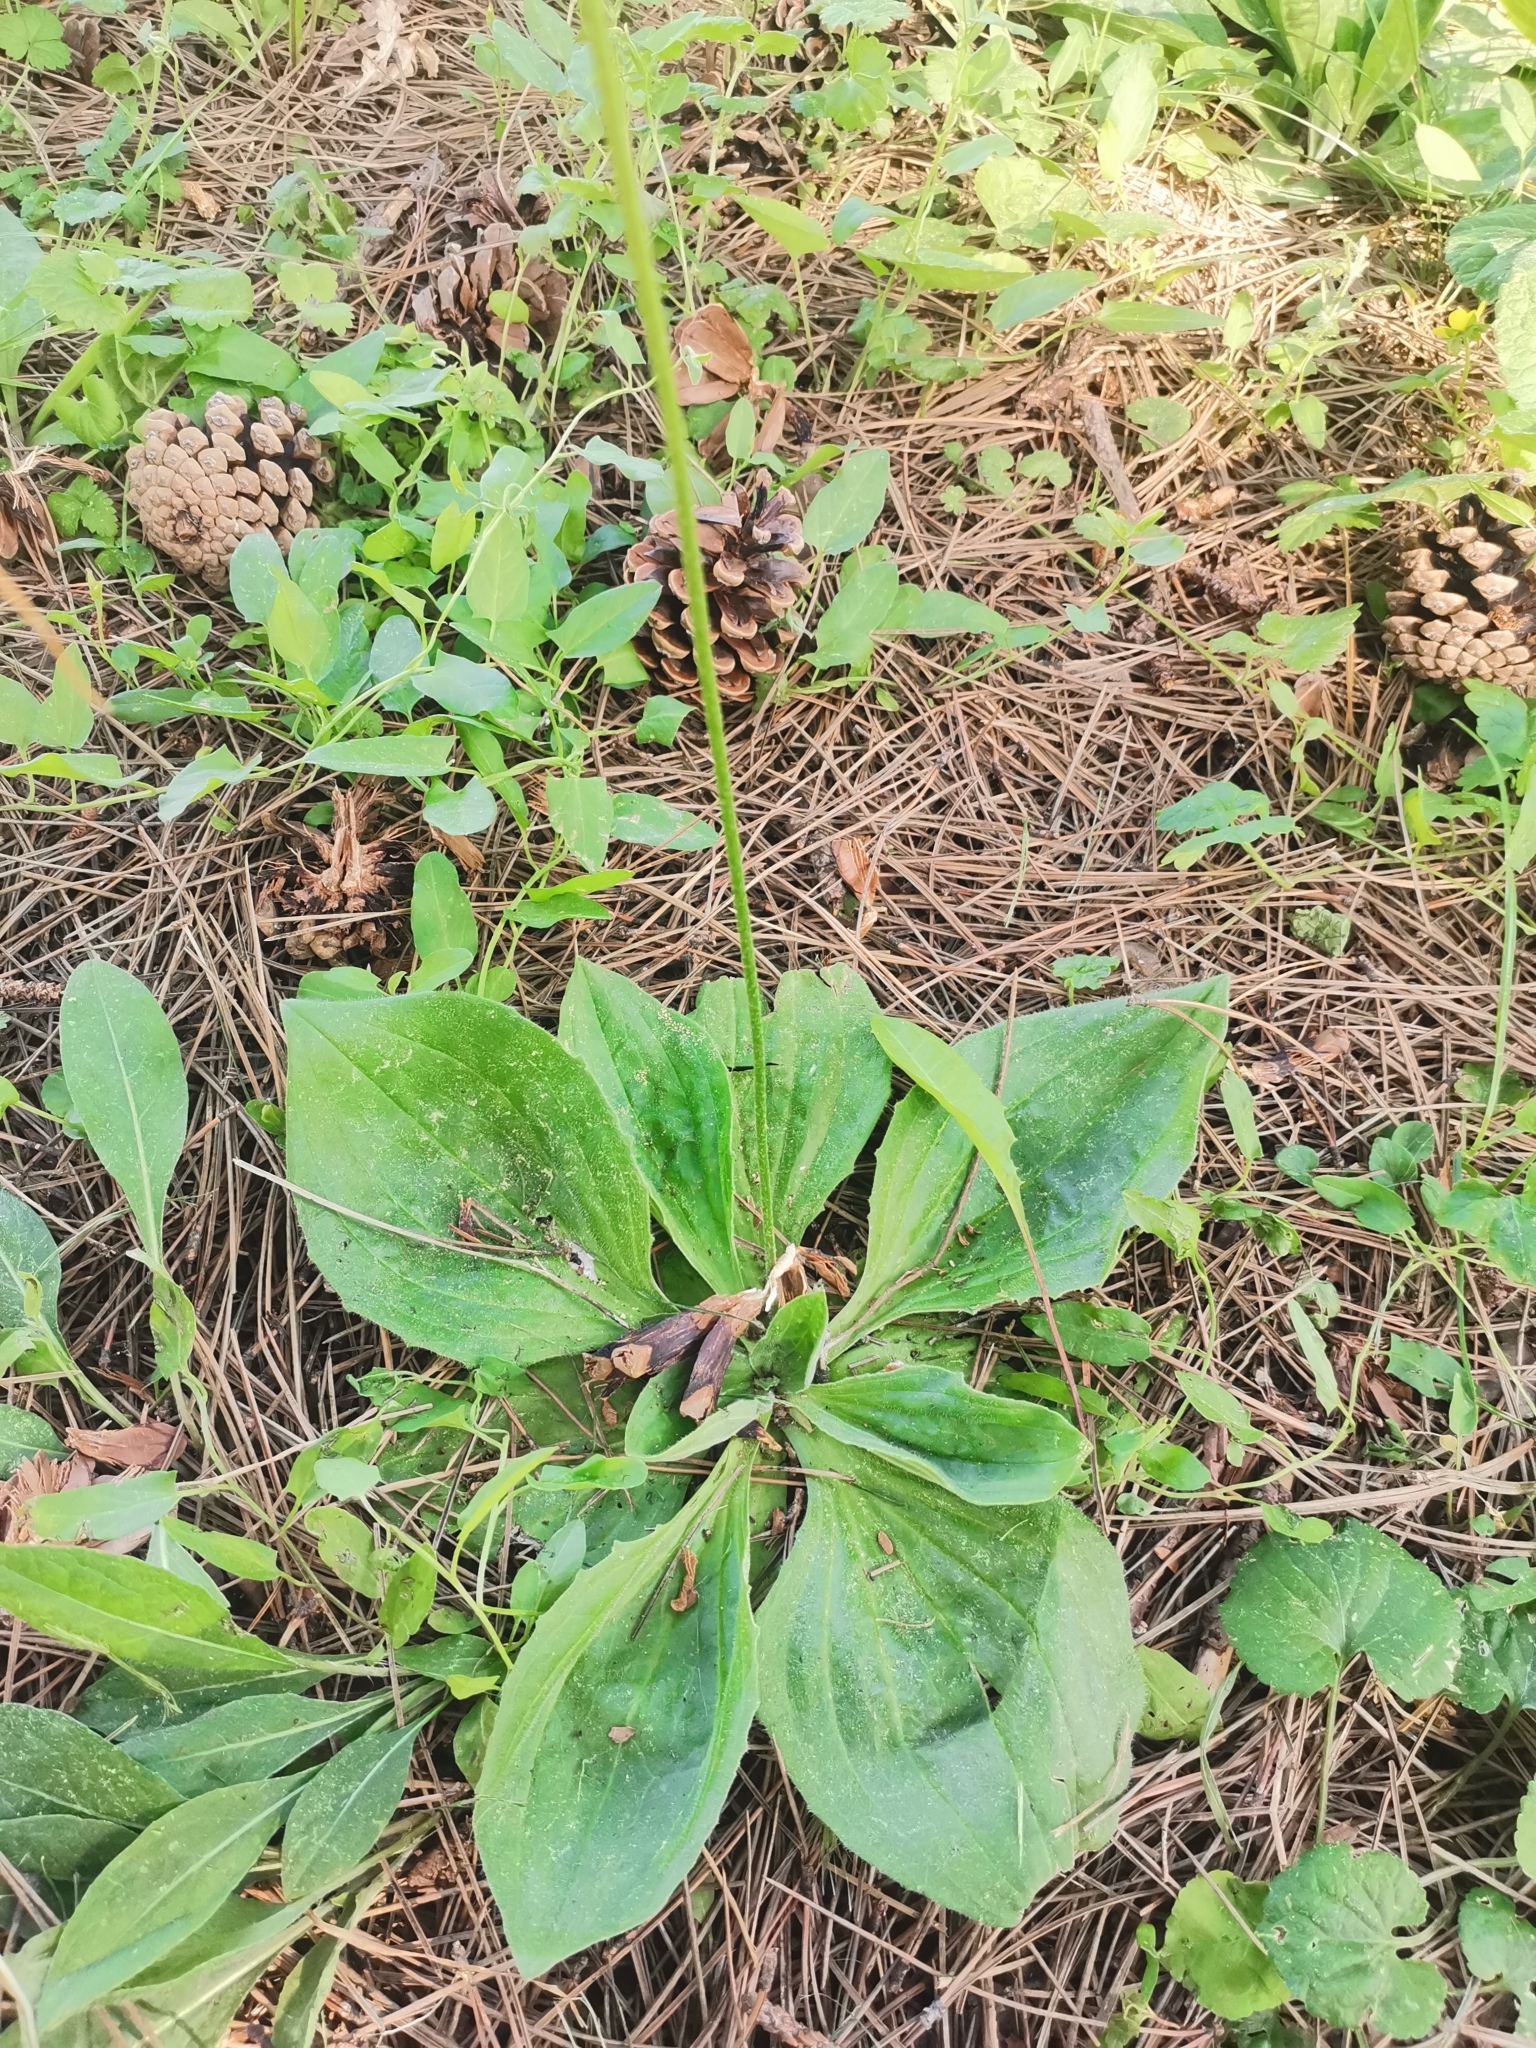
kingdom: Plantae
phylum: Tracheophyta
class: Magnoliopsida
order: Lamiales
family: Plantaginaceae
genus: Plantago
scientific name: Plantago media
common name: Hoary plantain
